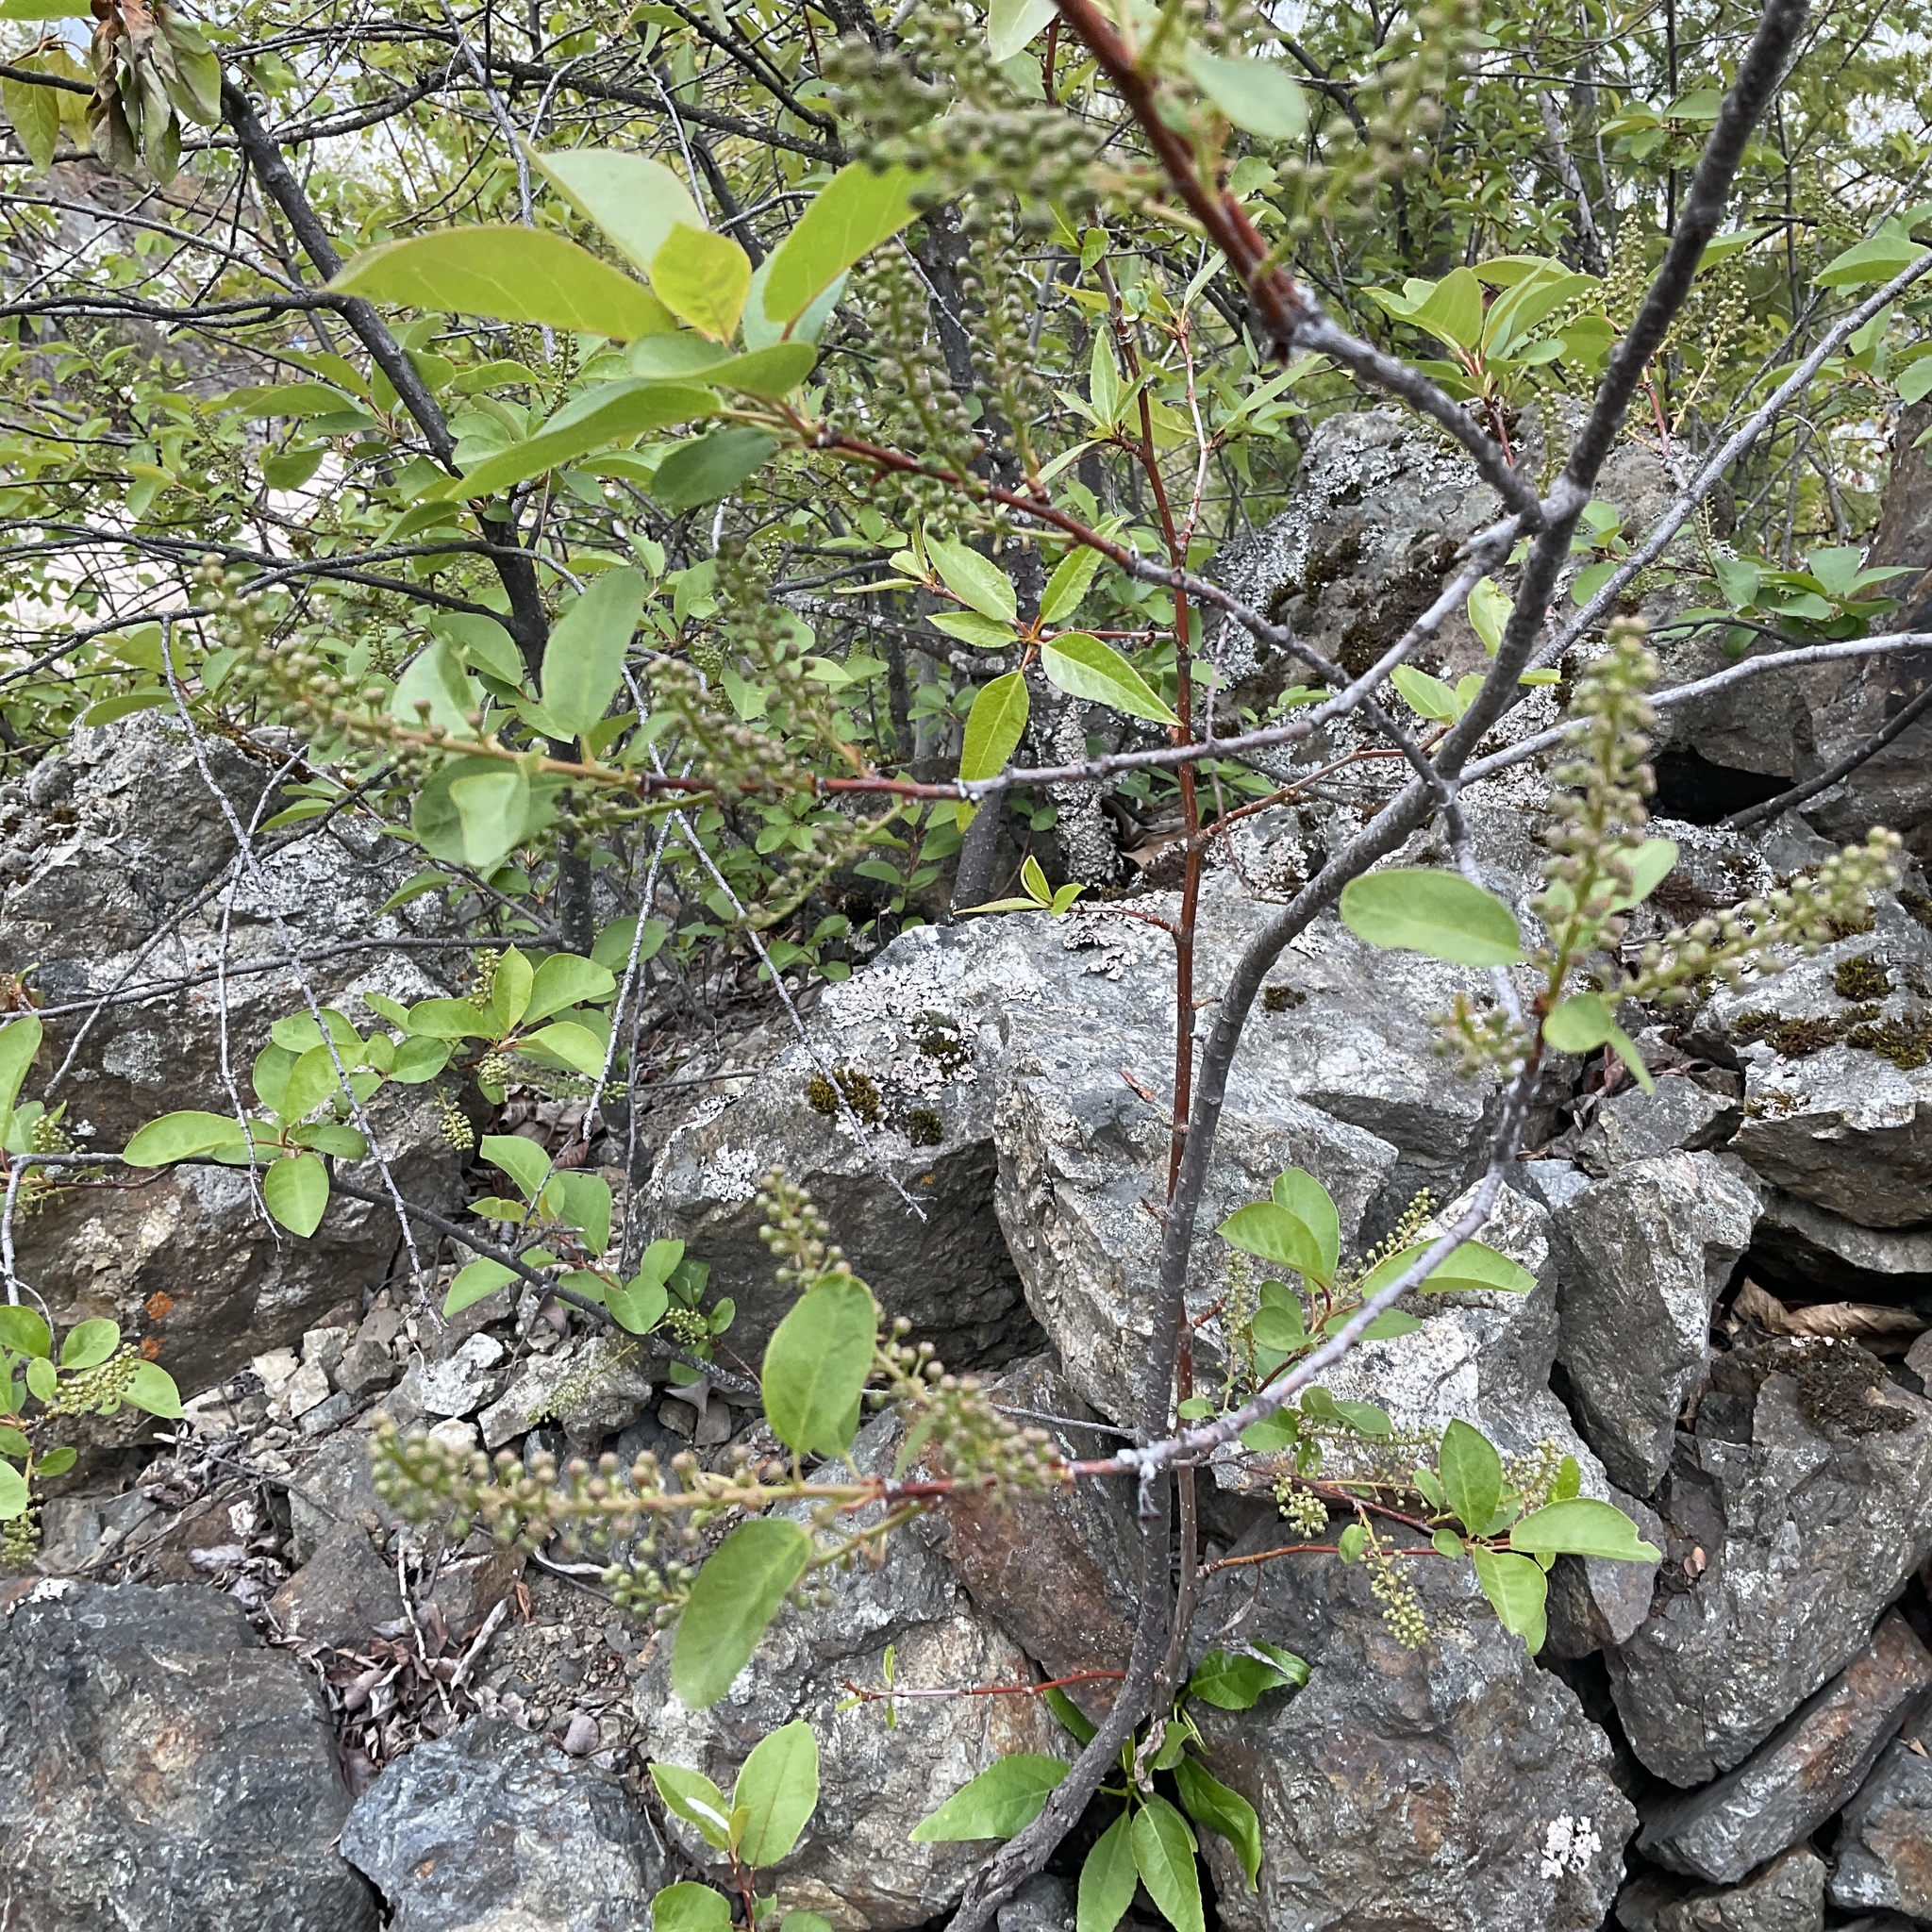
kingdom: Plantae
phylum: Tracheophyta
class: Magnoliopsida
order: Rosales
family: Rosaceae
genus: Prunus
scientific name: Prunus virginiana
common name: Chokecherry
